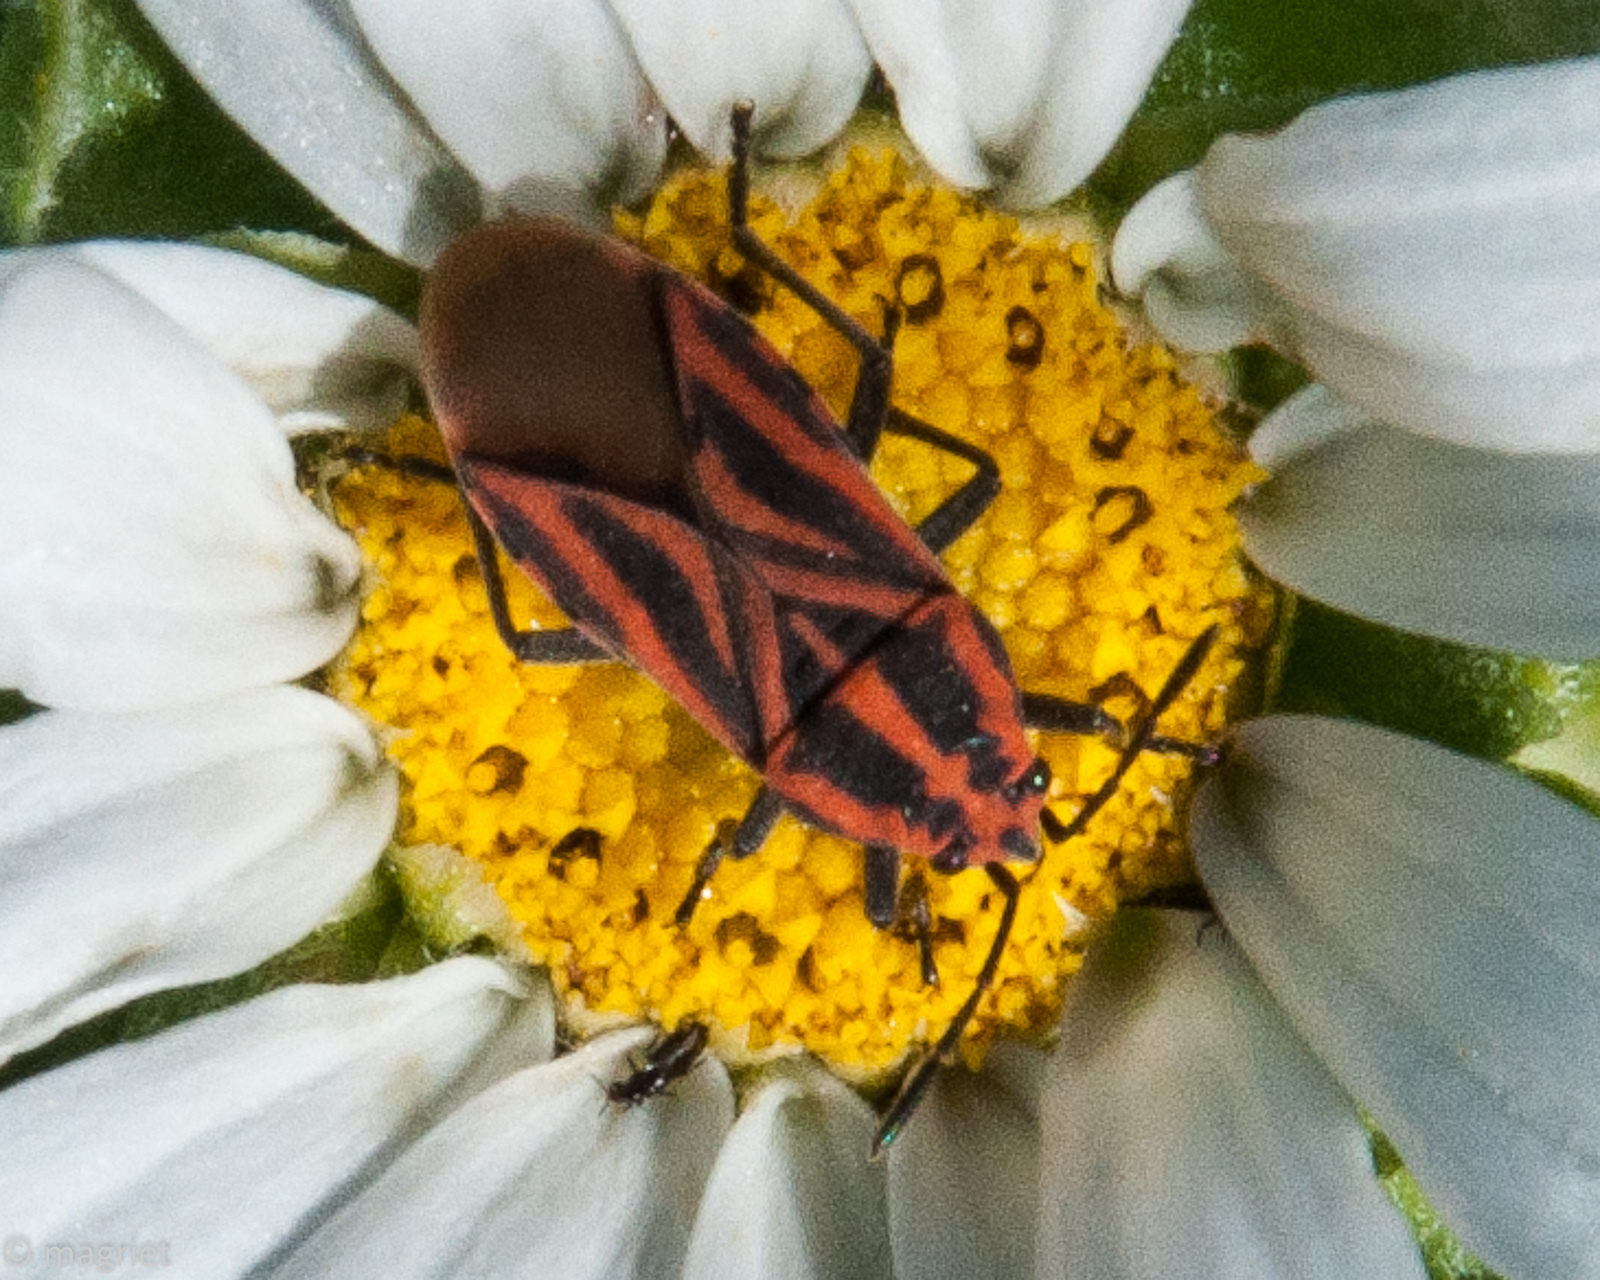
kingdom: Animalia
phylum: Arthropoda
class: Insecta
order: Hemiptera
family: Lygaeidae
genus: Spilostethus
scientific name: Spilostethus taeniatus
